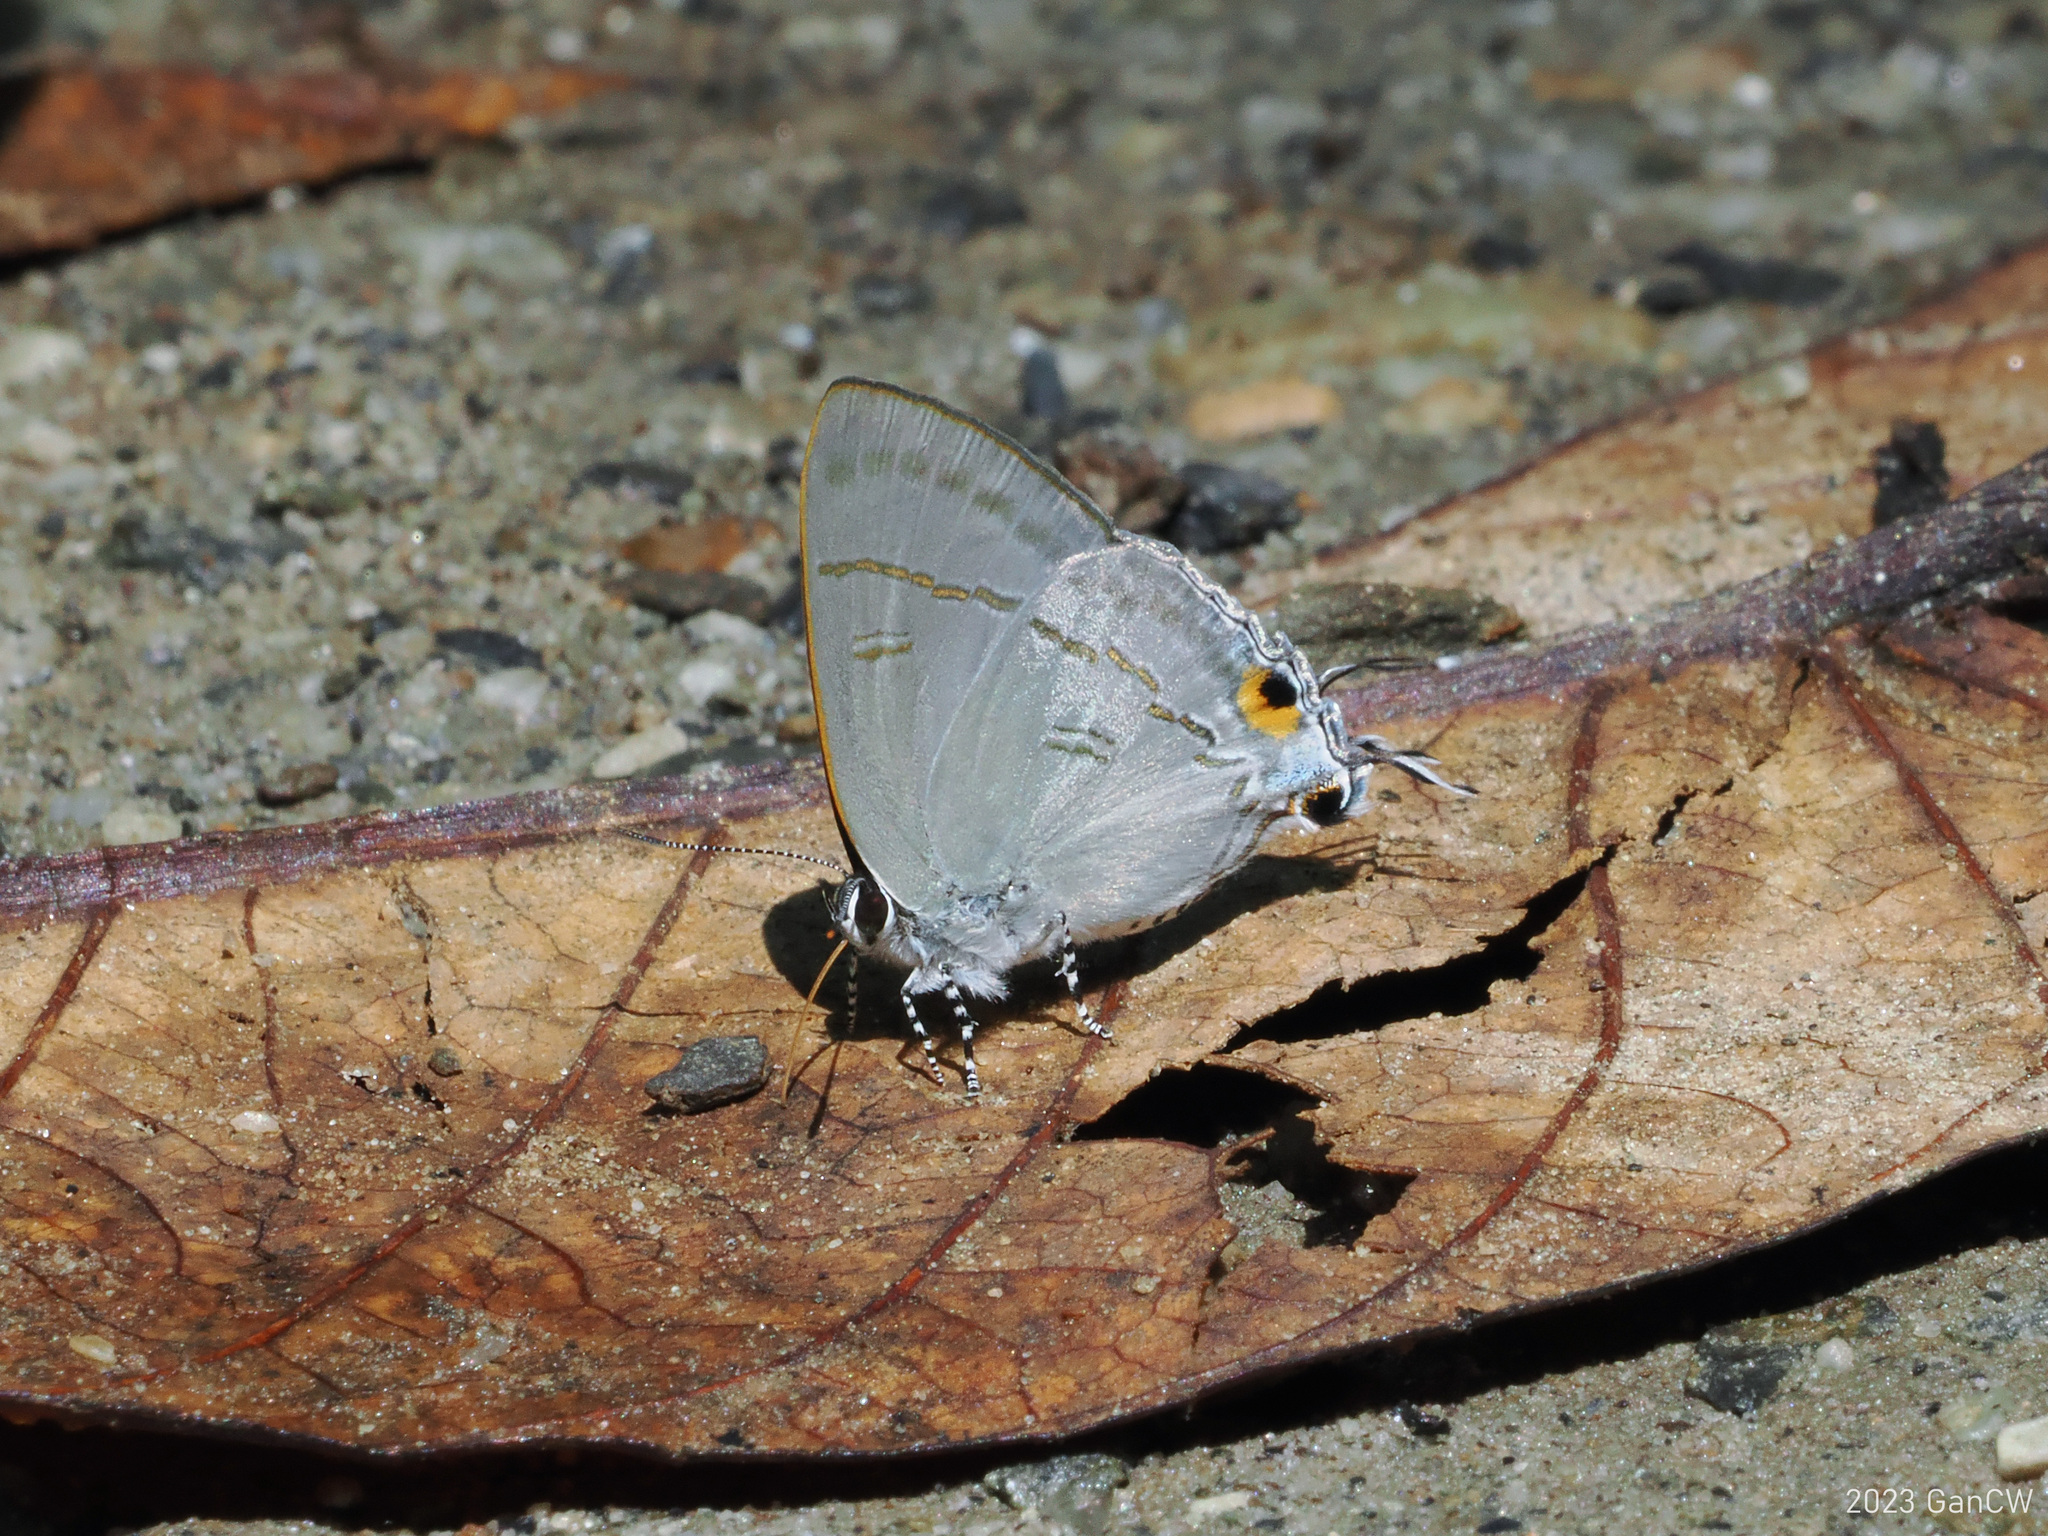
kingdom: Animalia
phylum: Arthropoda
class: Insecta
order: Lepidoptera
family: Lycaenidae
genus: Hypolycaena
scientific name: Hypolycaena erylus
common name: Common tit
